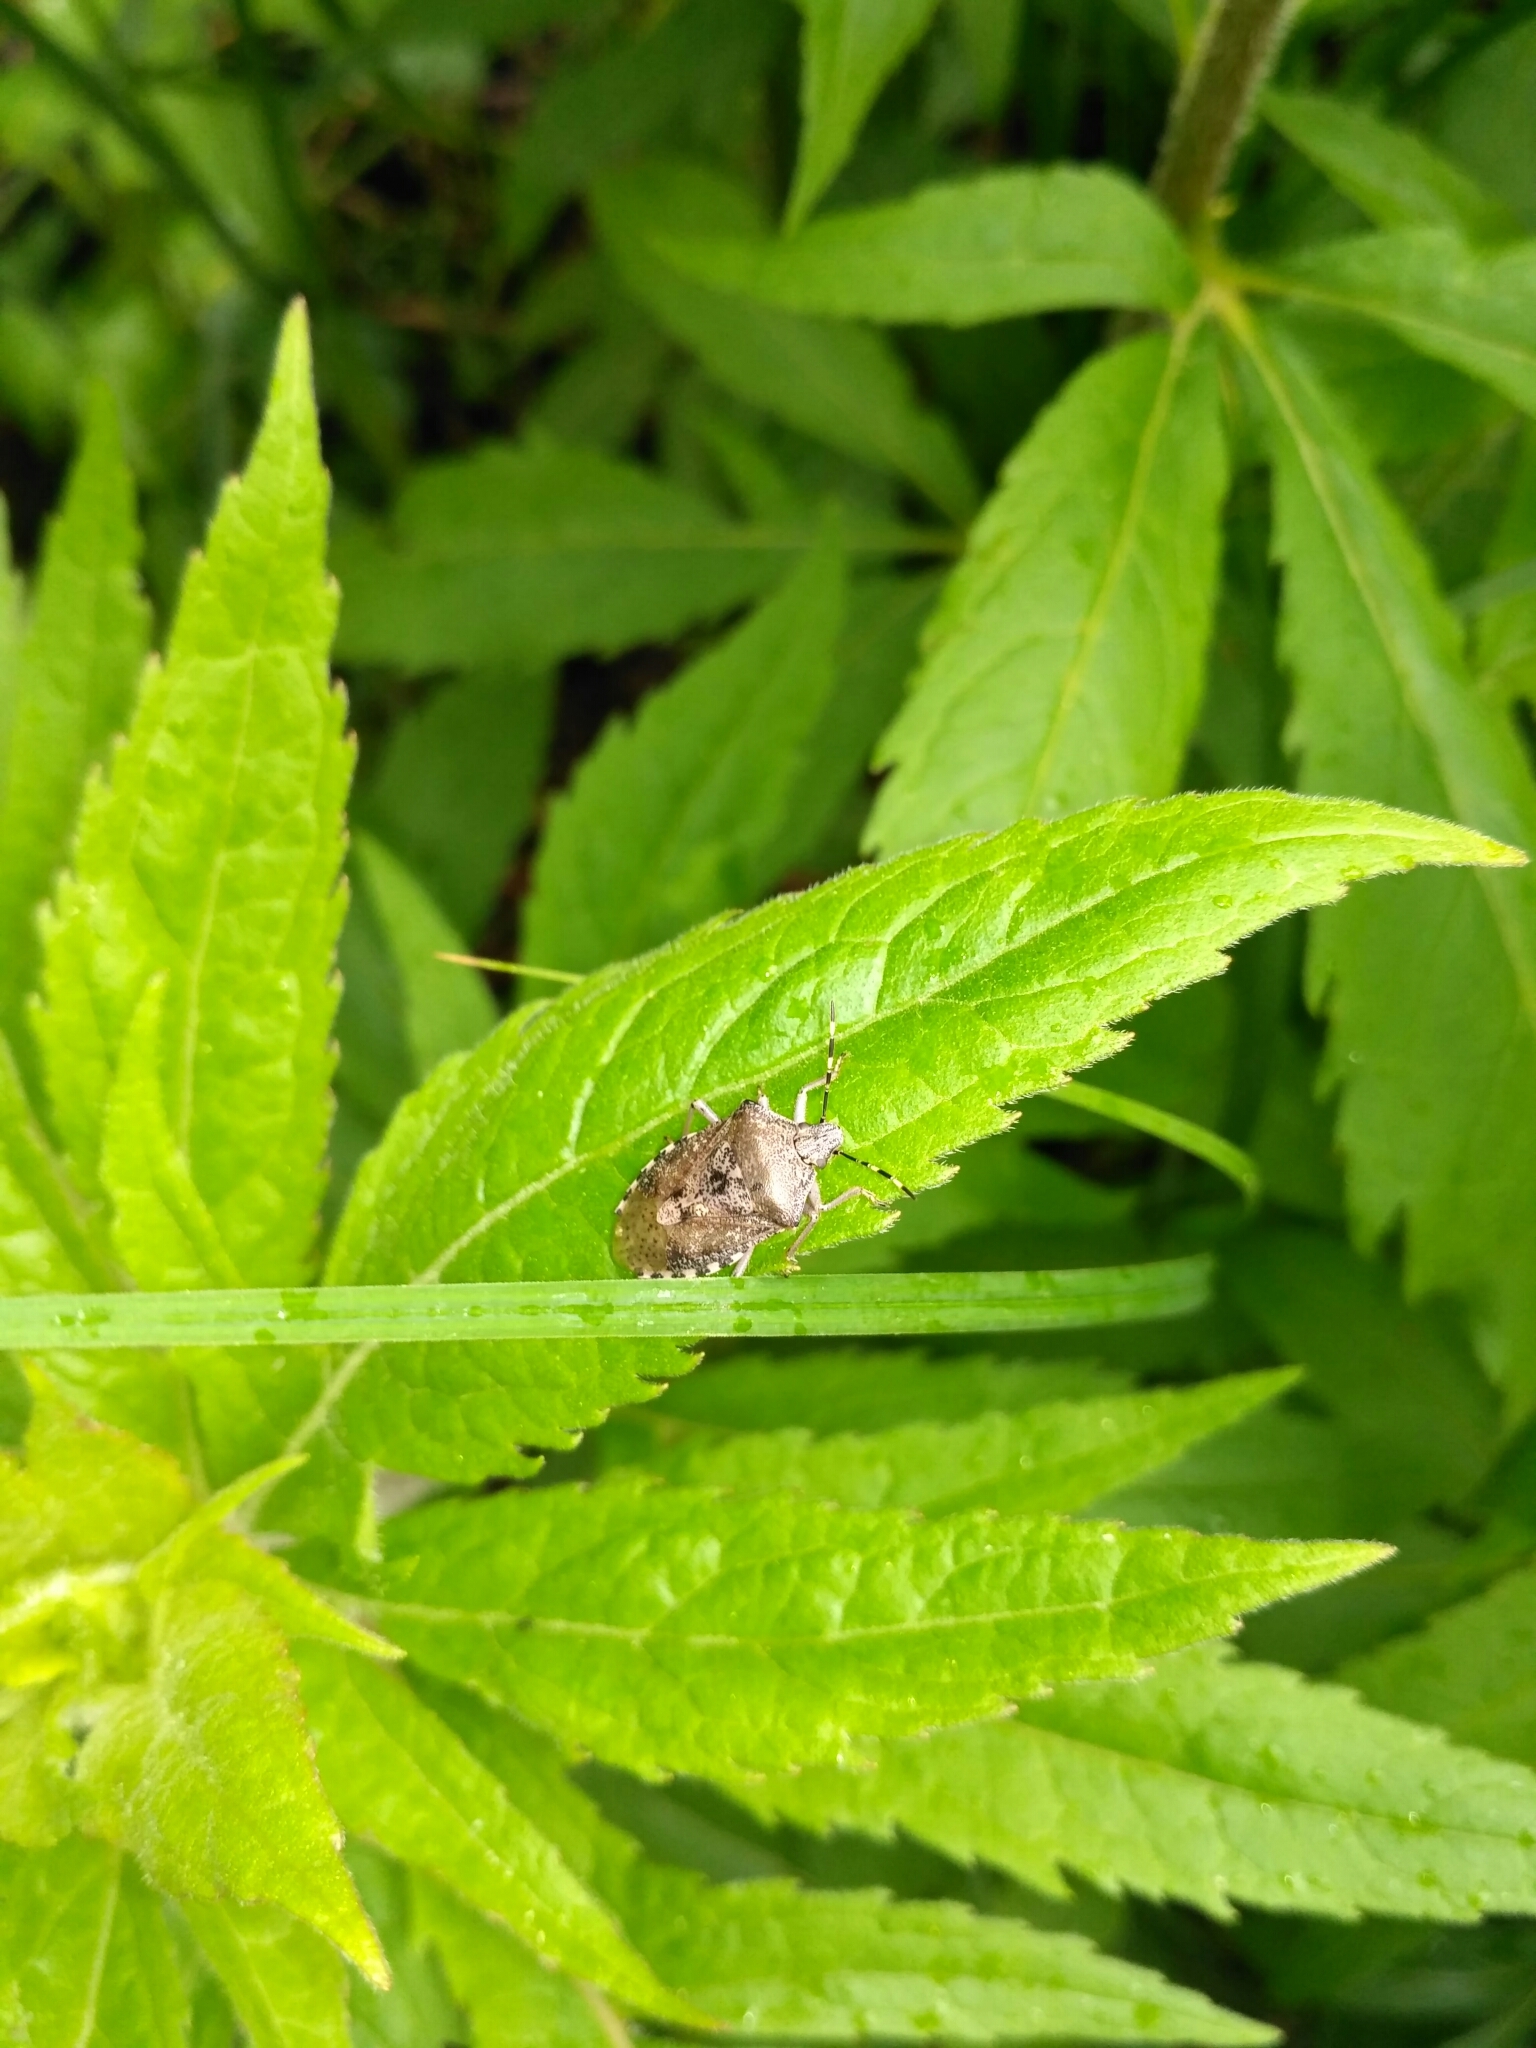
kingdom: Animalia
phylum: Arthropoda
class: Insecta
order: Hemiptera
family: Pentatomidae
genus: Rhaphigaster
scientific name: Rhaphigaster nebulosa
